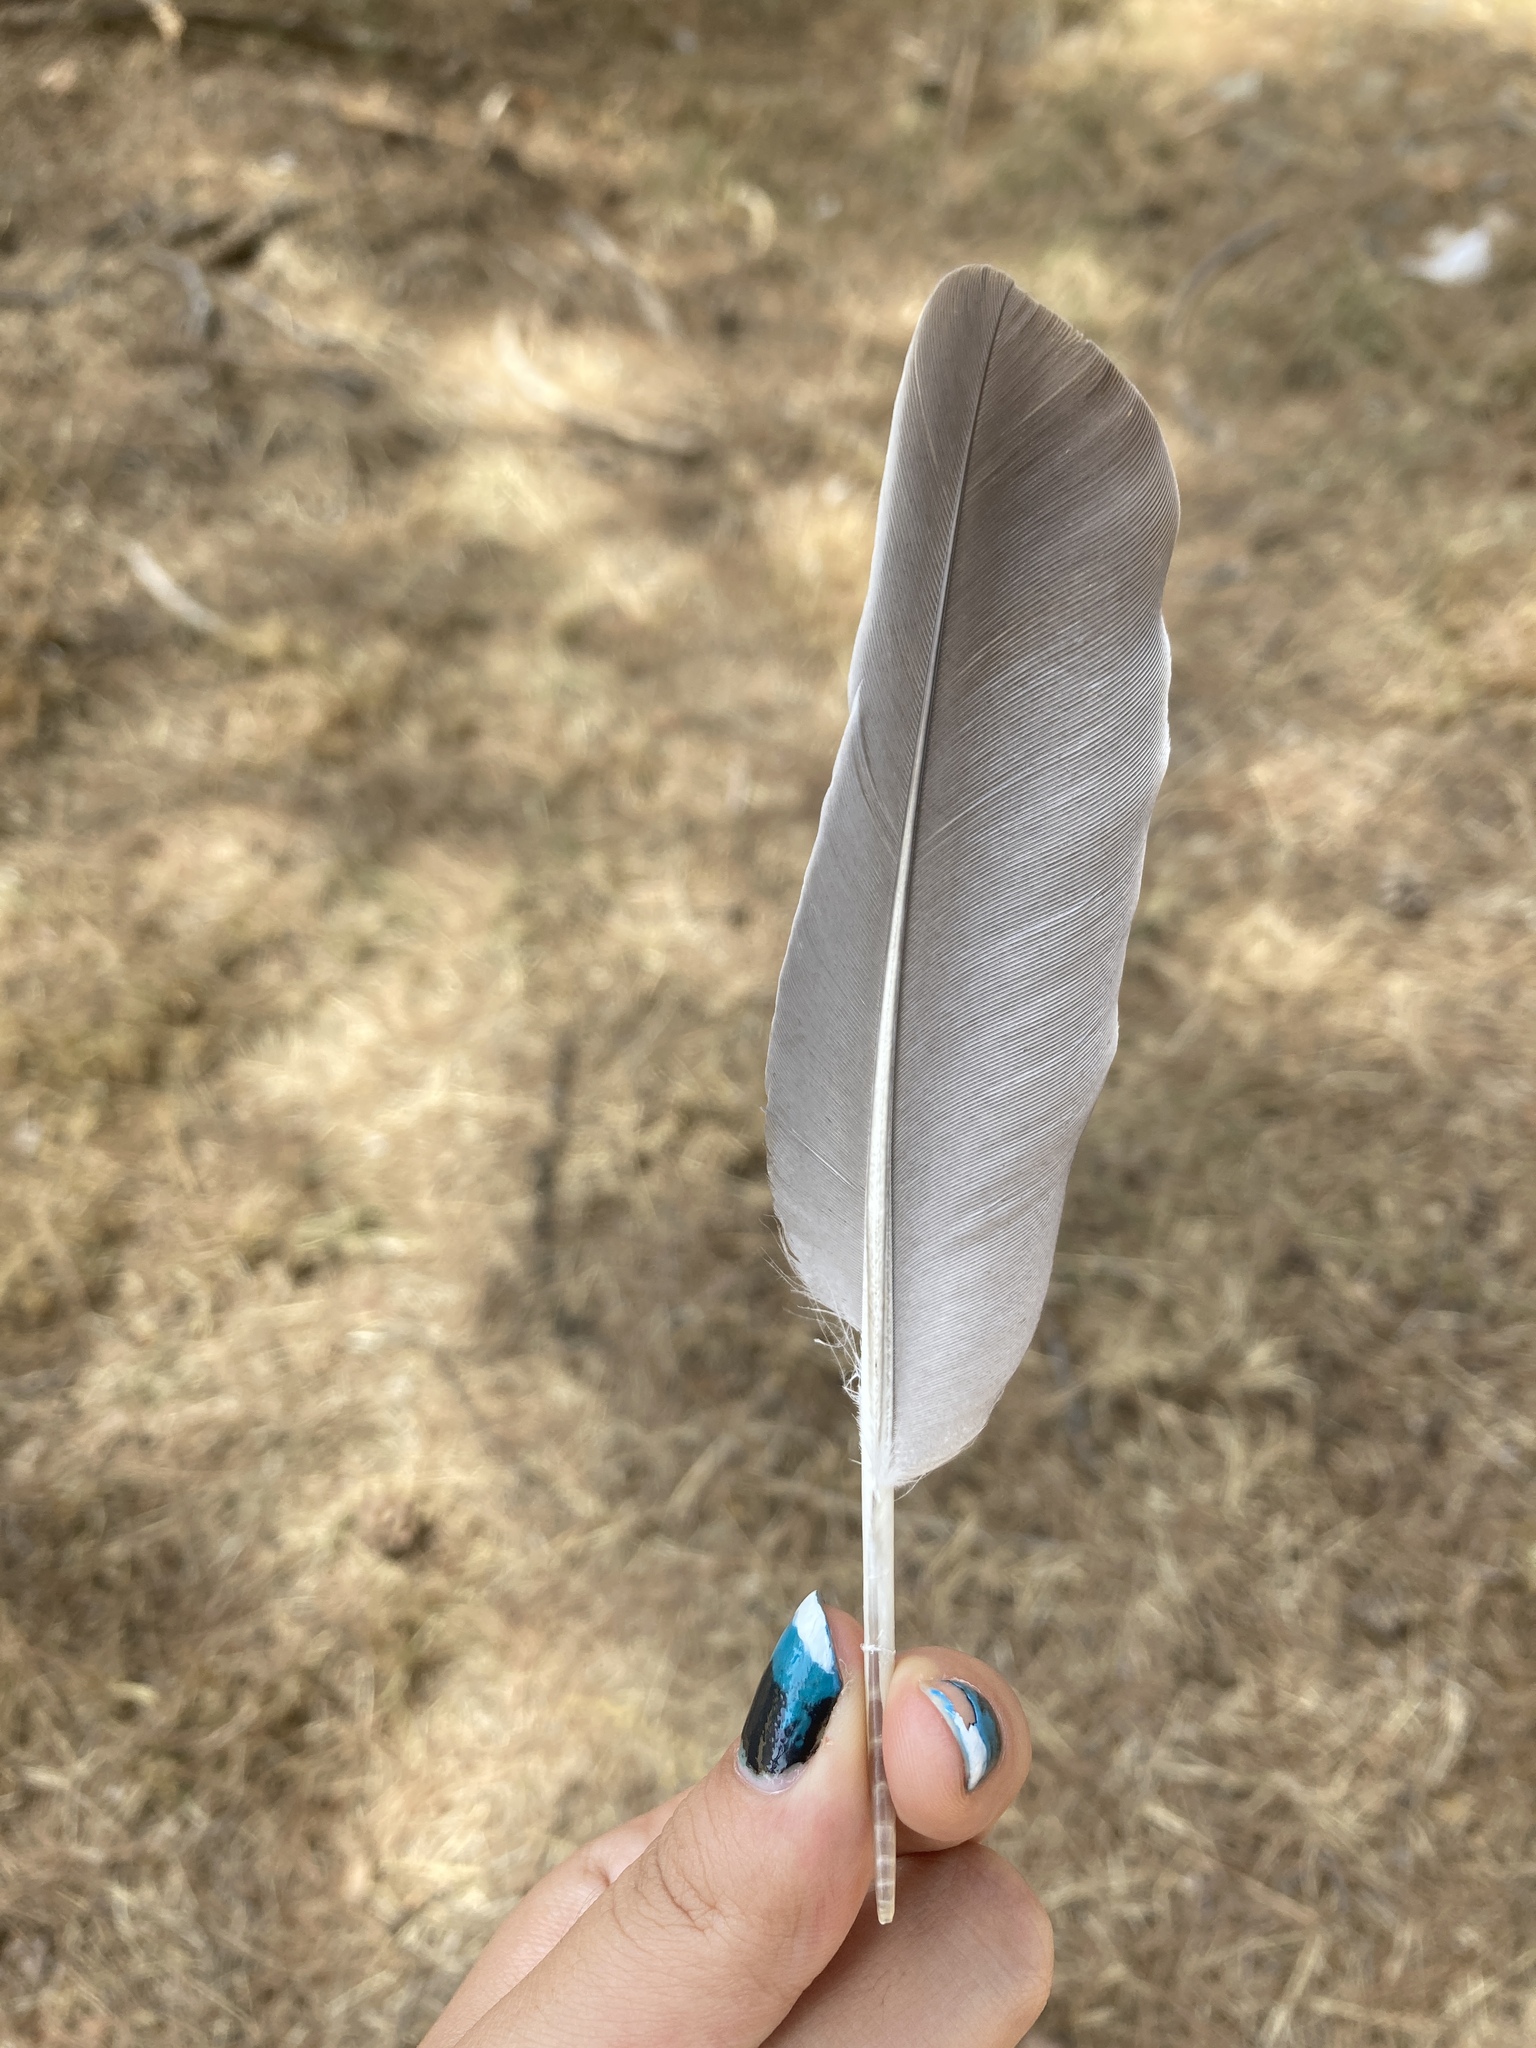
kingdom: Animalia
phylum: Chordata
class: Aves
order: Columbiformes
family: Columbidae
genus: Columba
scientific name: Columba palumbus
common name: Common wood pigeon
